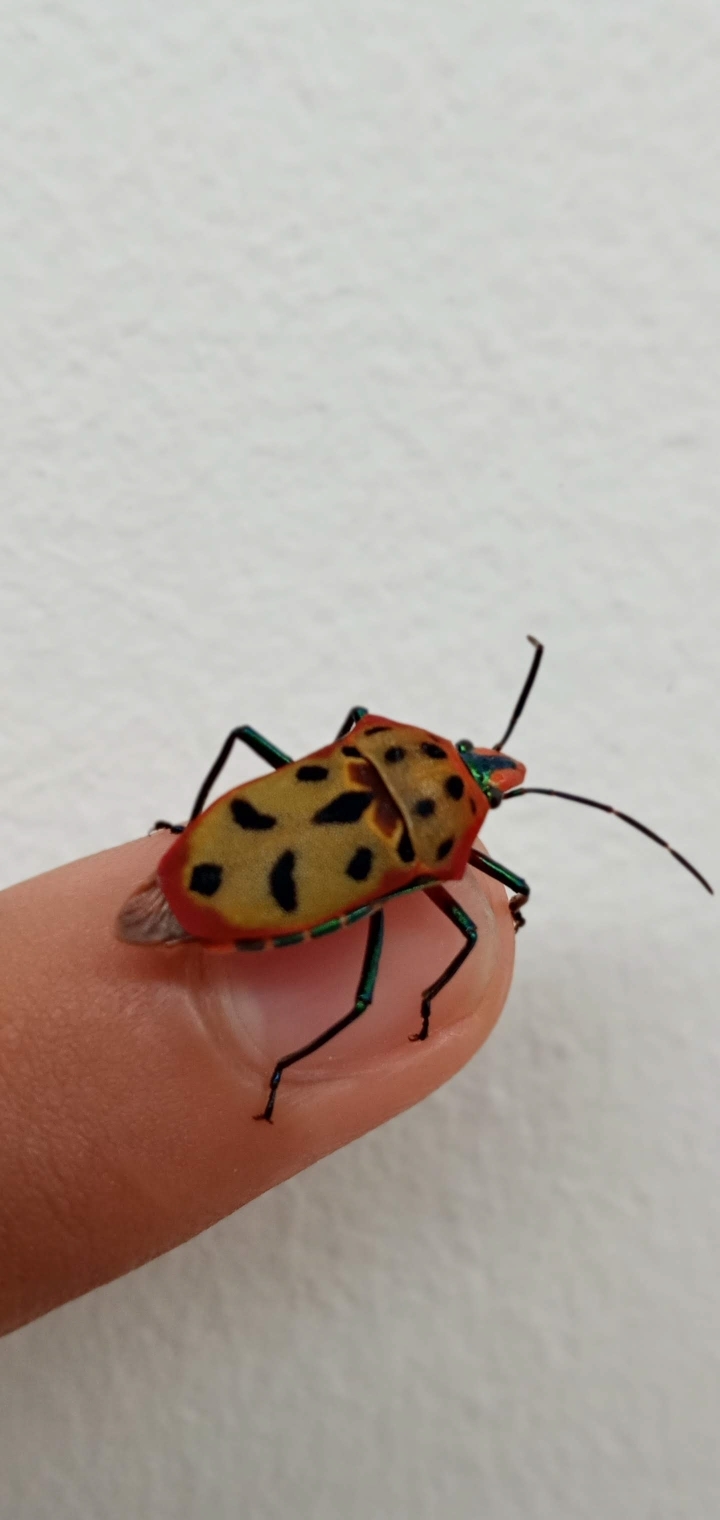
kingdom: Animalia
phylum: Arthropoda
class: Insecta
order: Hemiptera
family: Scutelleridae
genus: Cantao
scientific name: Cantao ocellatus
